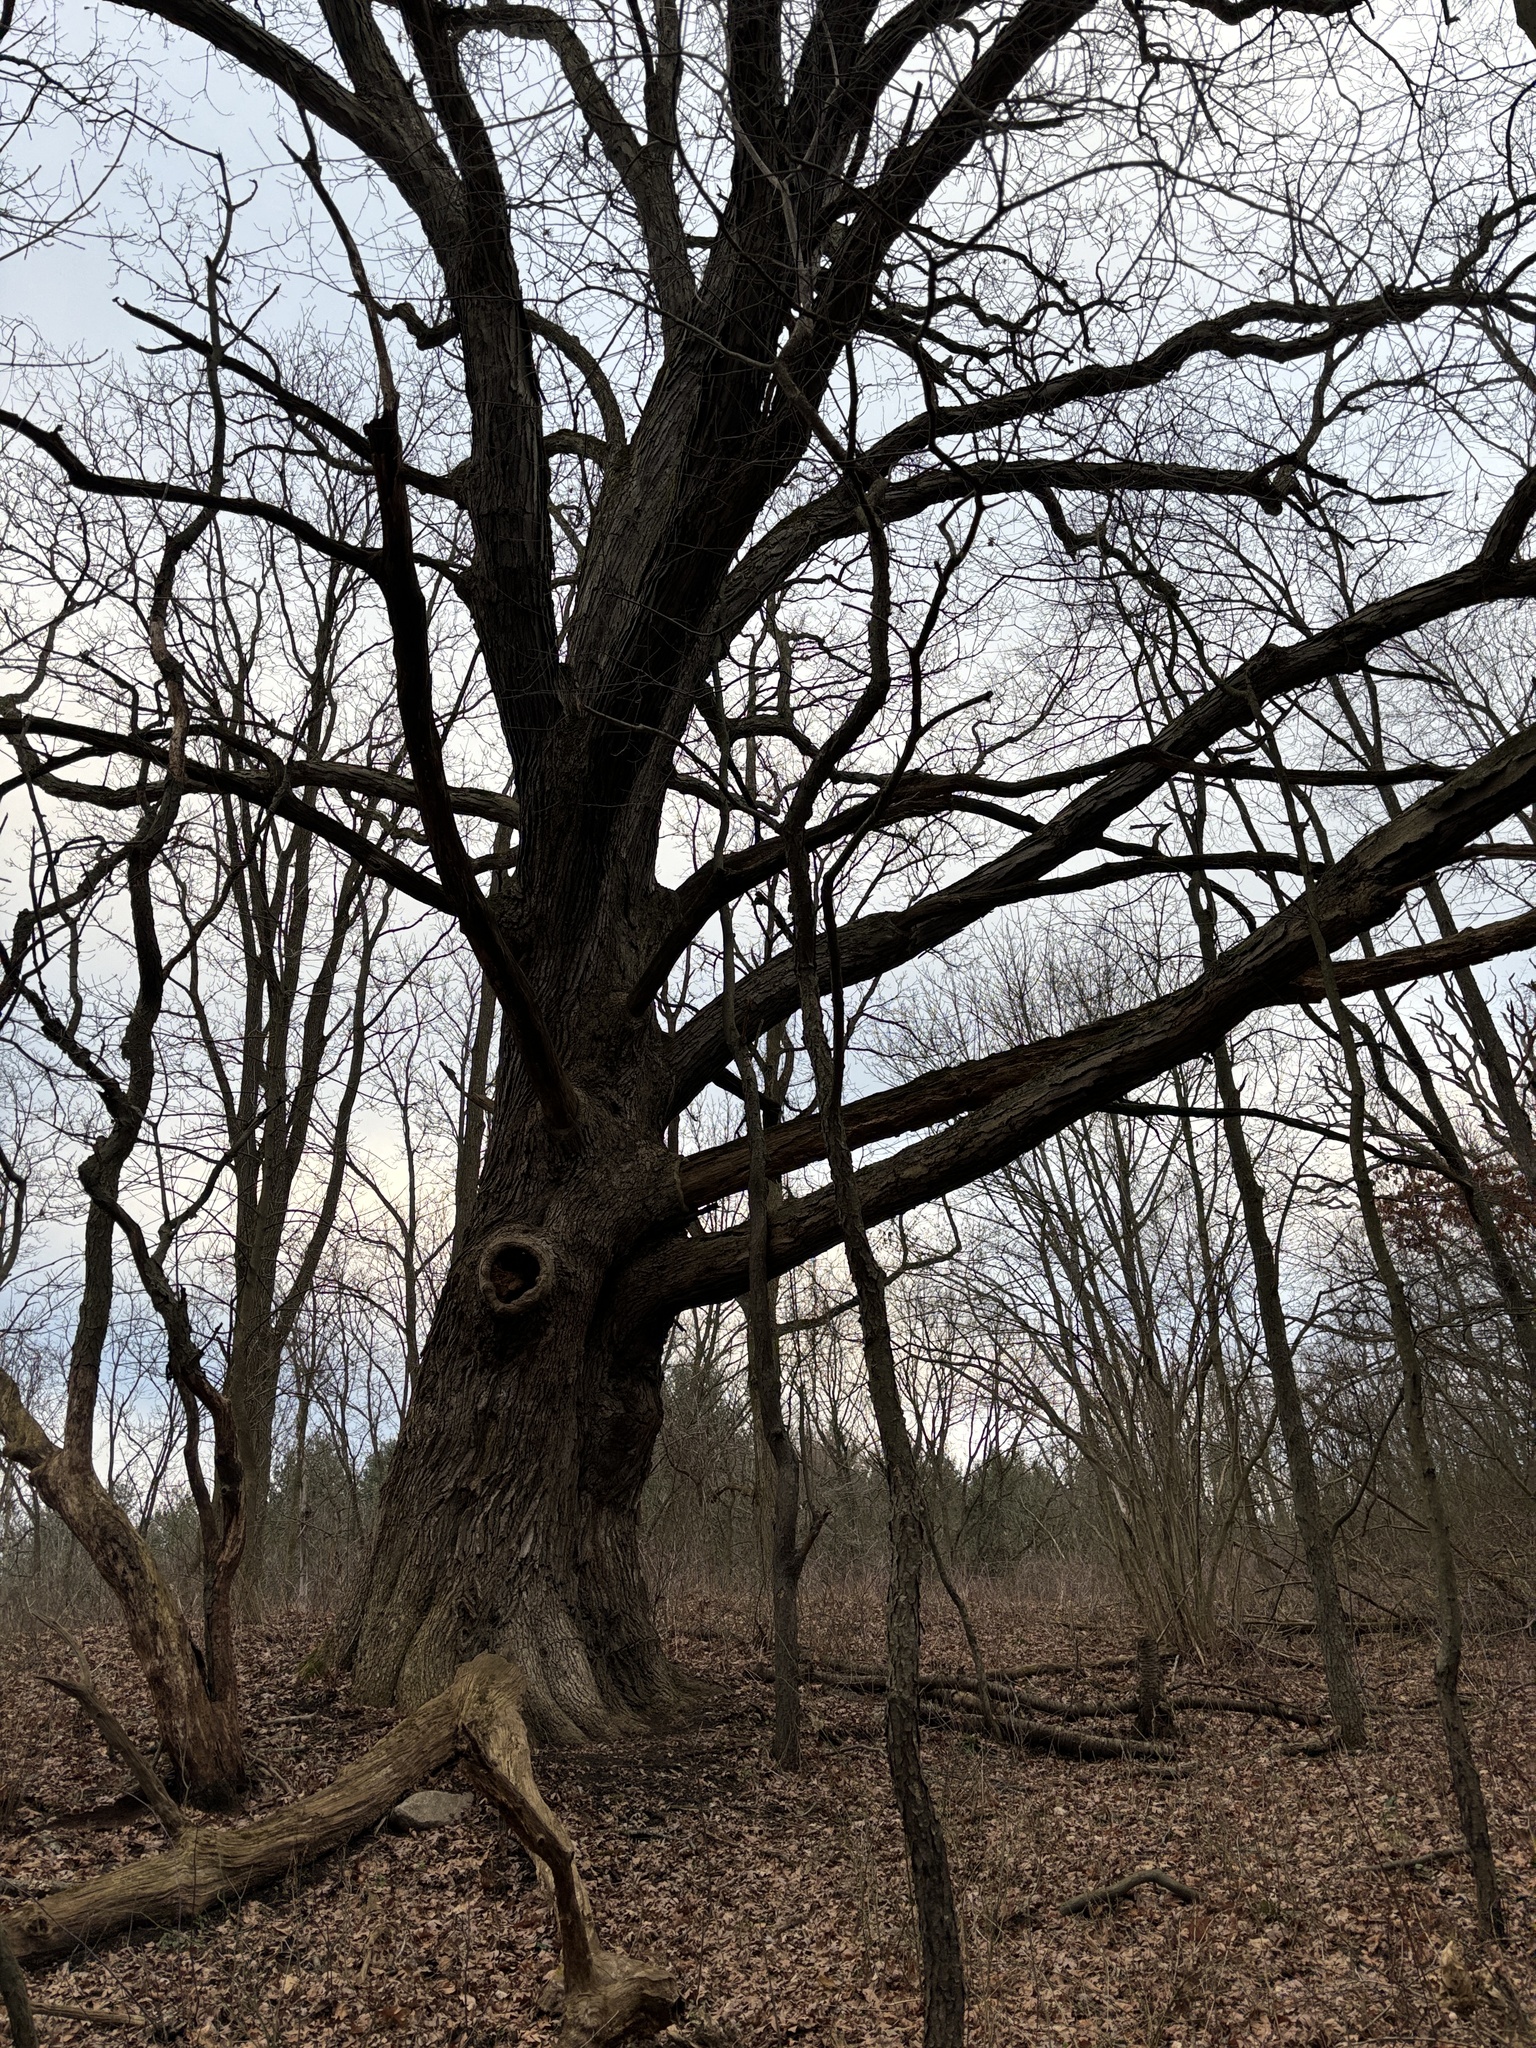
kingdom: Plantae
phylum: Tracheophyta
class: Magnoliopsida
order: Fagales
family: Fagaceae
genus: Quercus
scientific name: Quercus alba
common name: White oak
